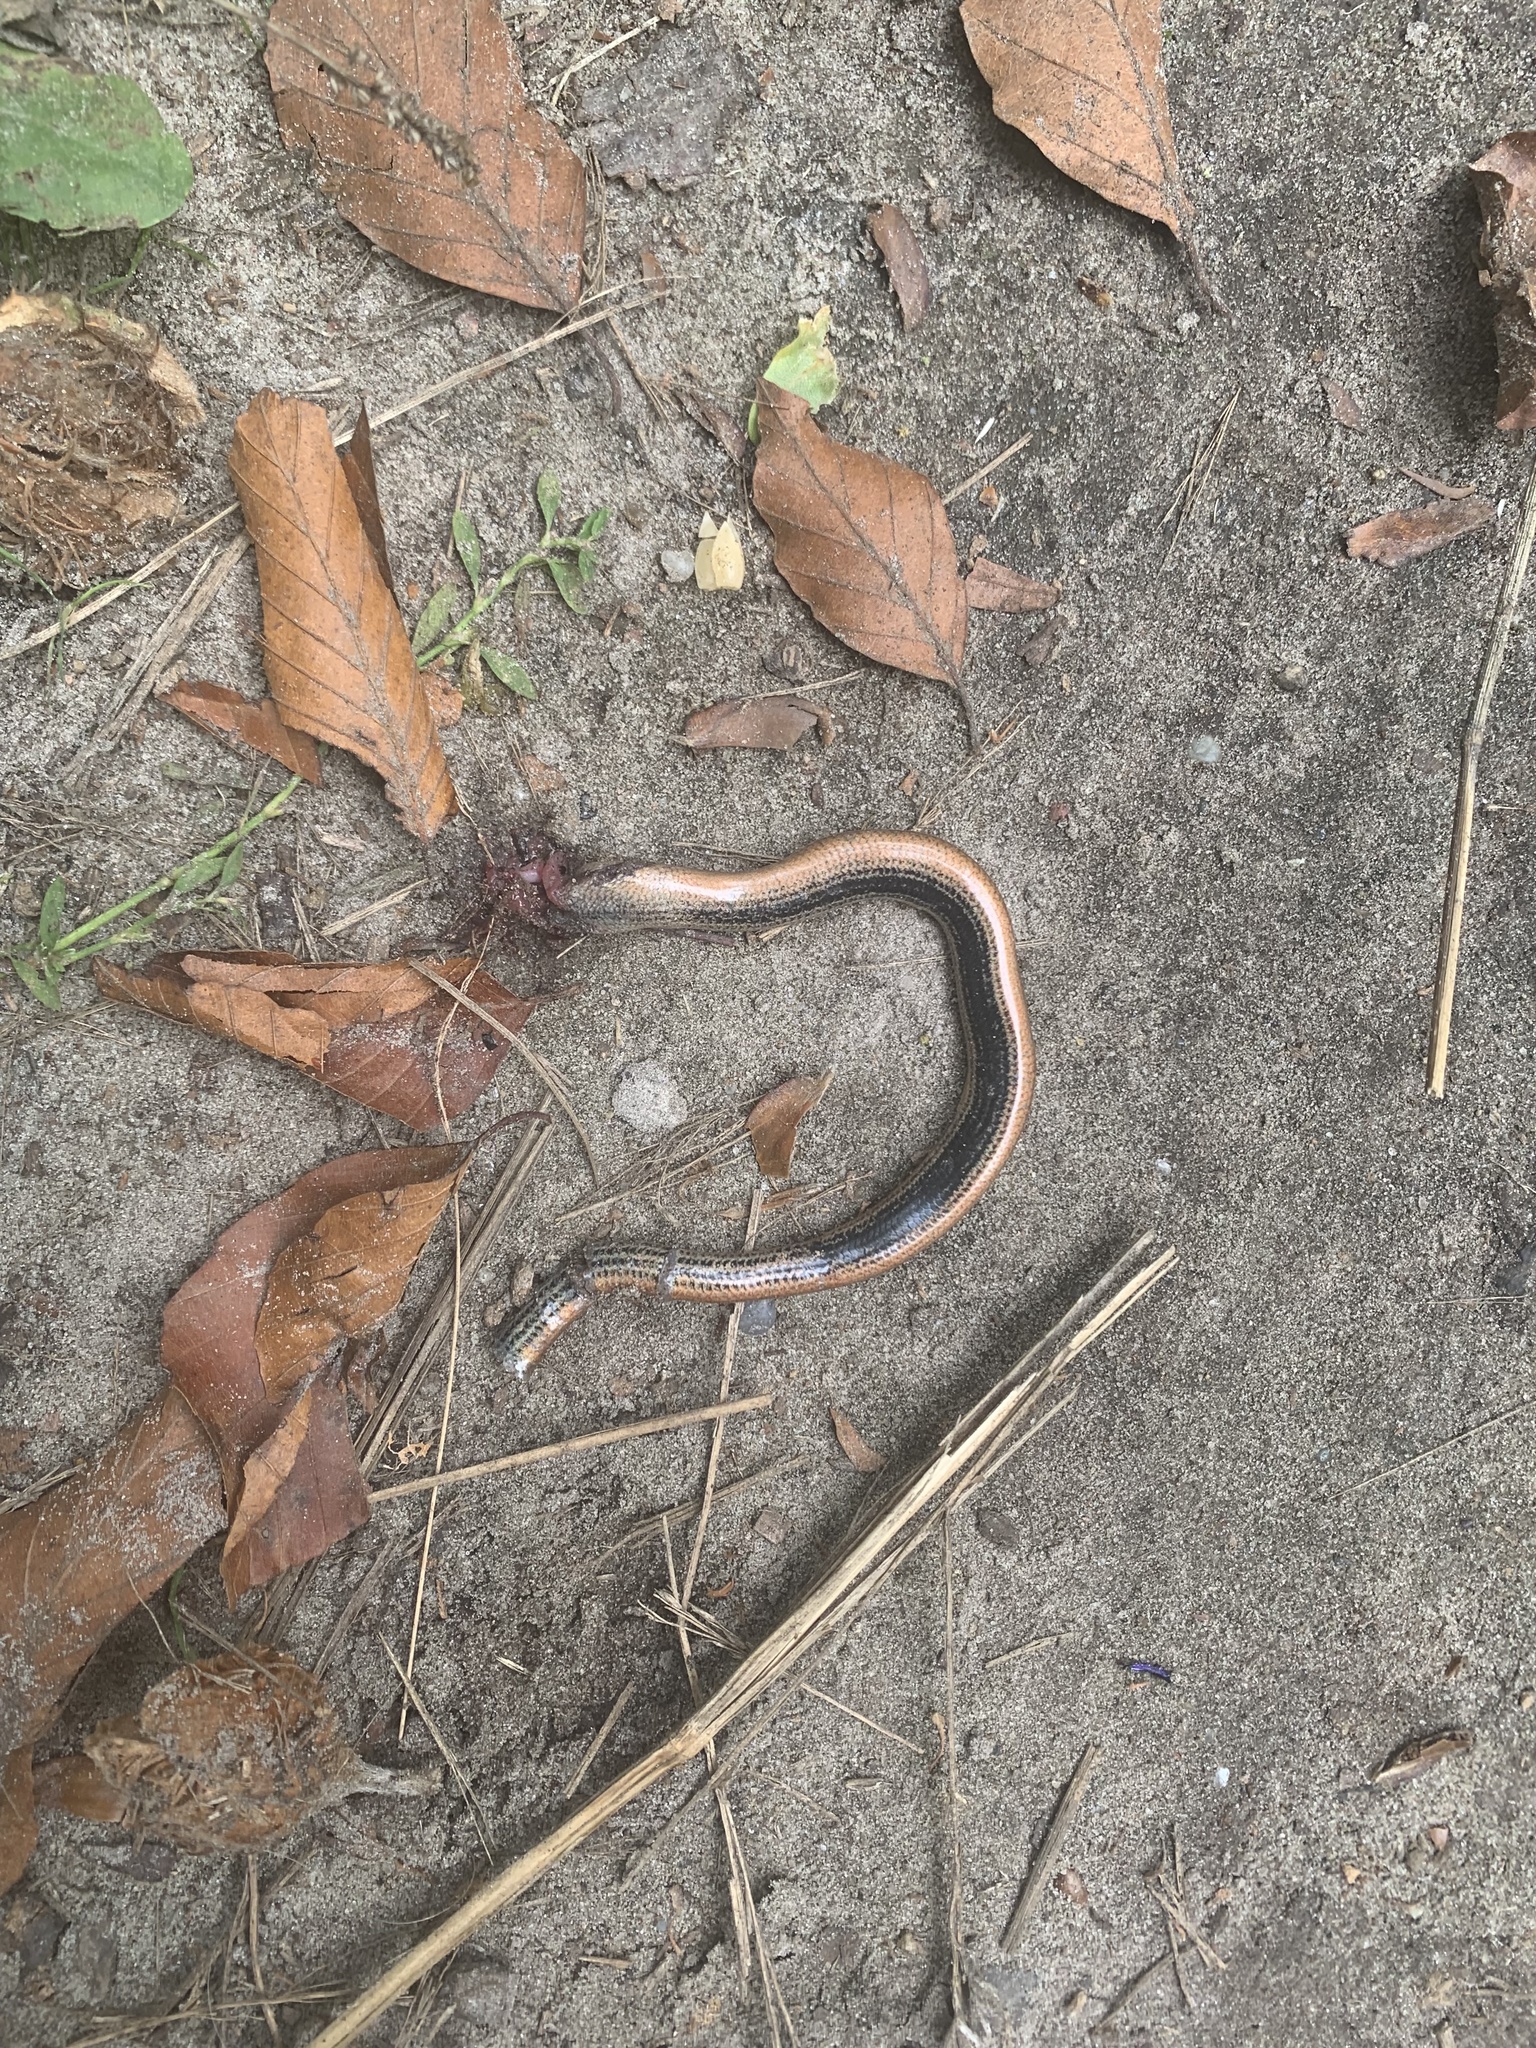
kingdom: Animalia
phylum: Chordata
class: Squamata
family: Anguidae
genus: Anguis
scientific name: Anguis fragilis
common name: Slow worm
